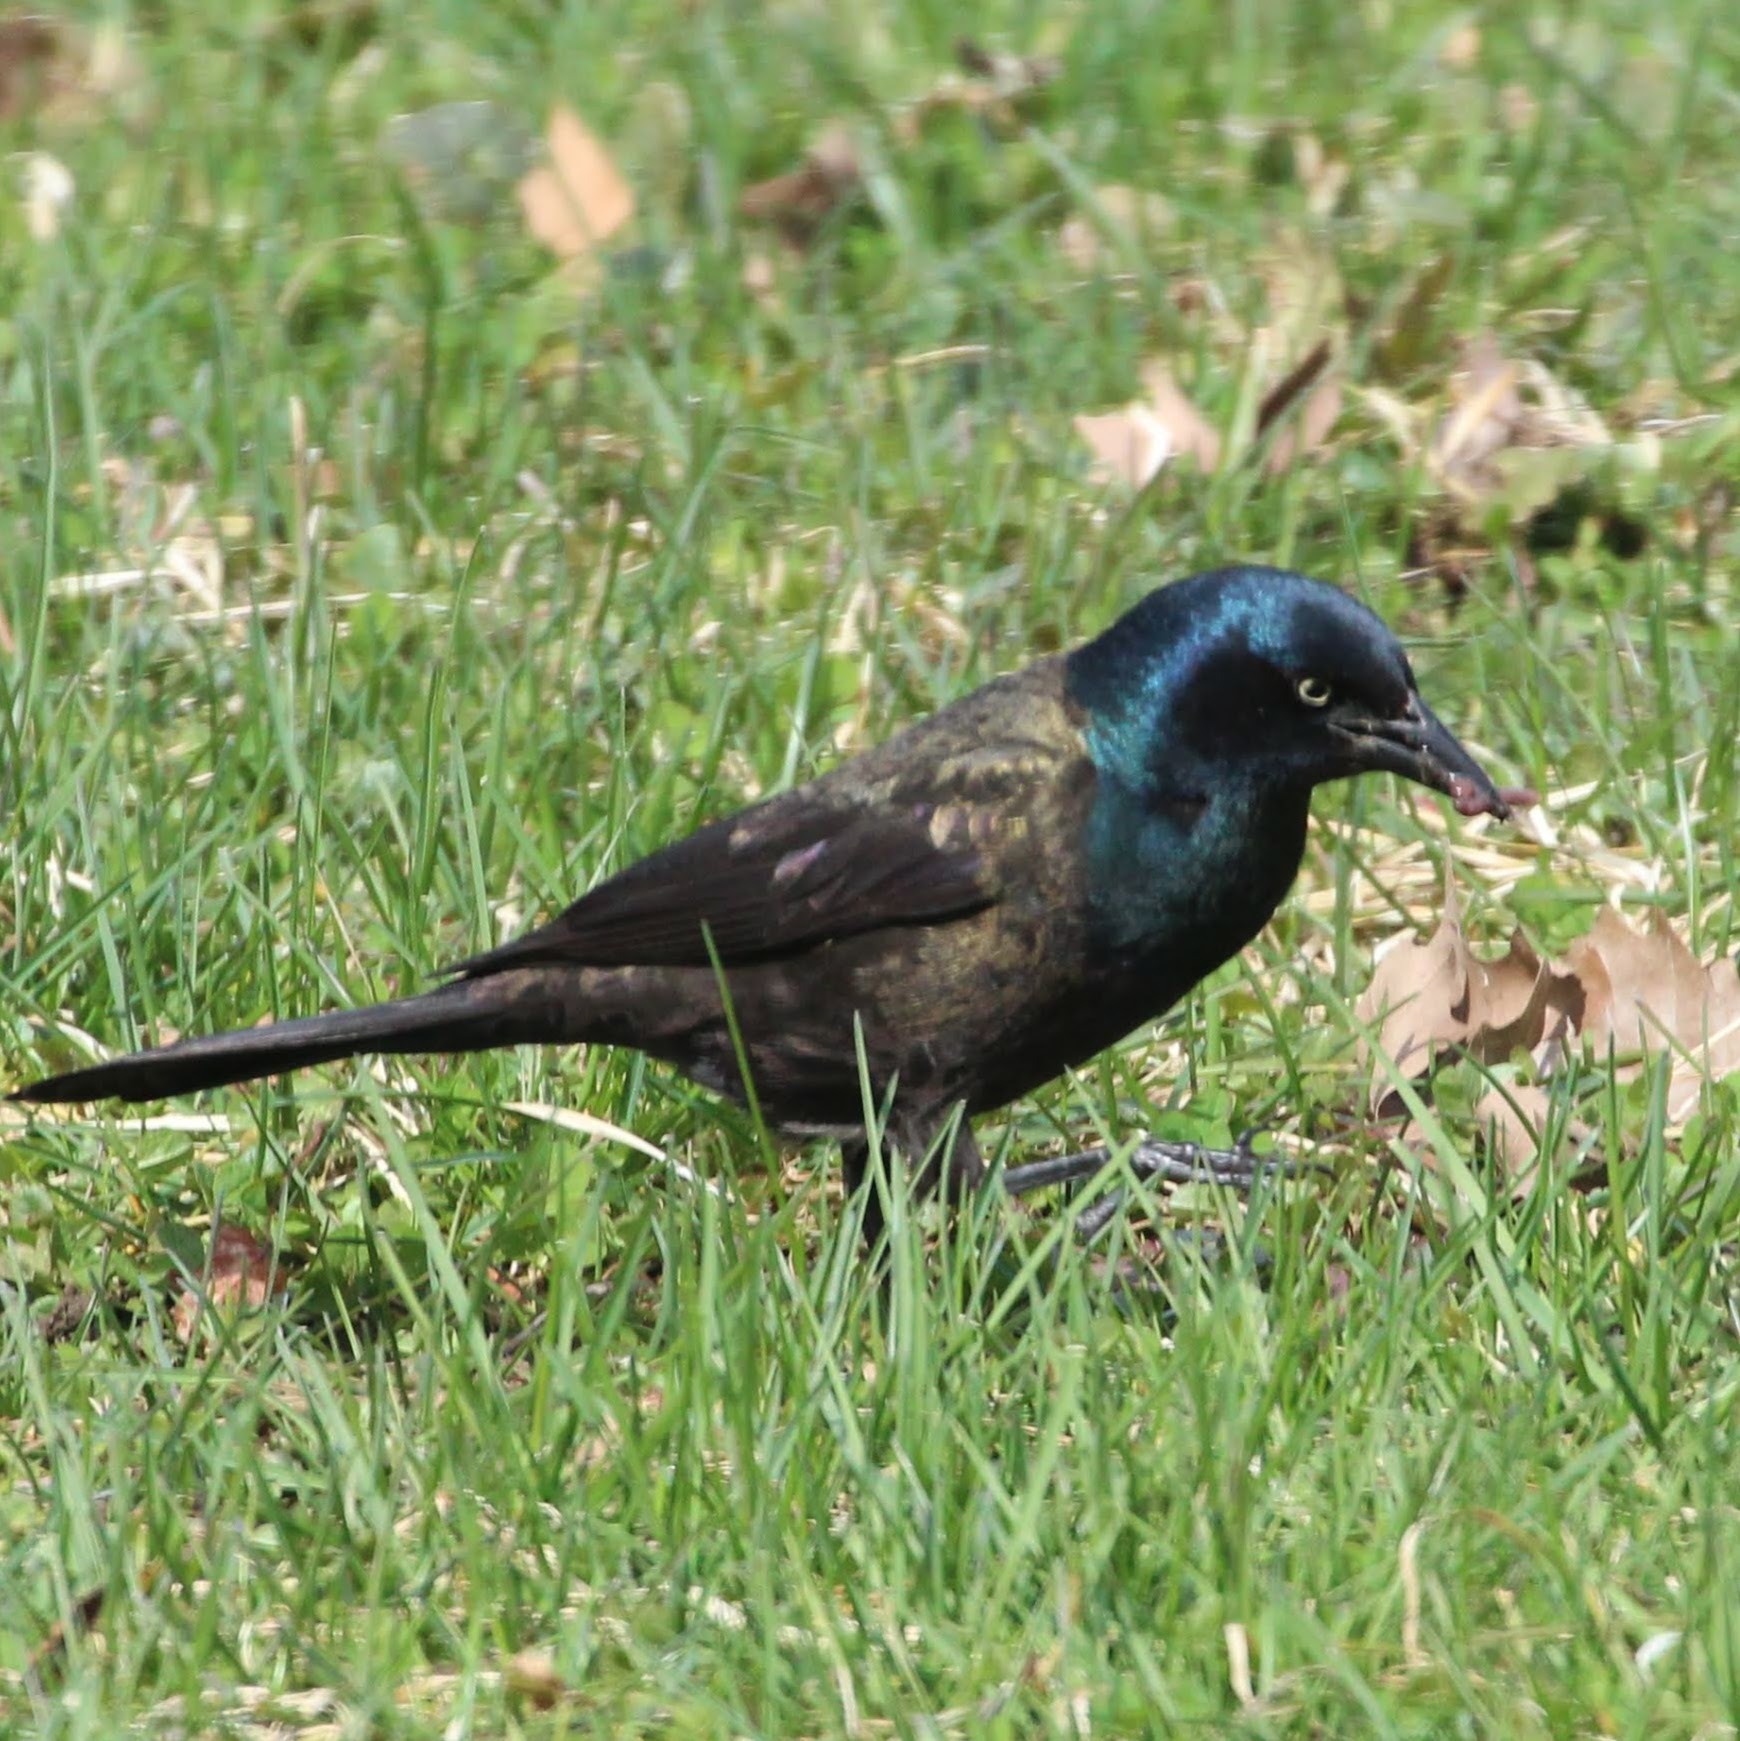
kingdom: Animalia
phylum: Chordata
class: Aves
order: Passeriformes
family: Icteridae
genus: Quiscalus
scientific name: Quiscalus quiscula
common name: Common grackle
